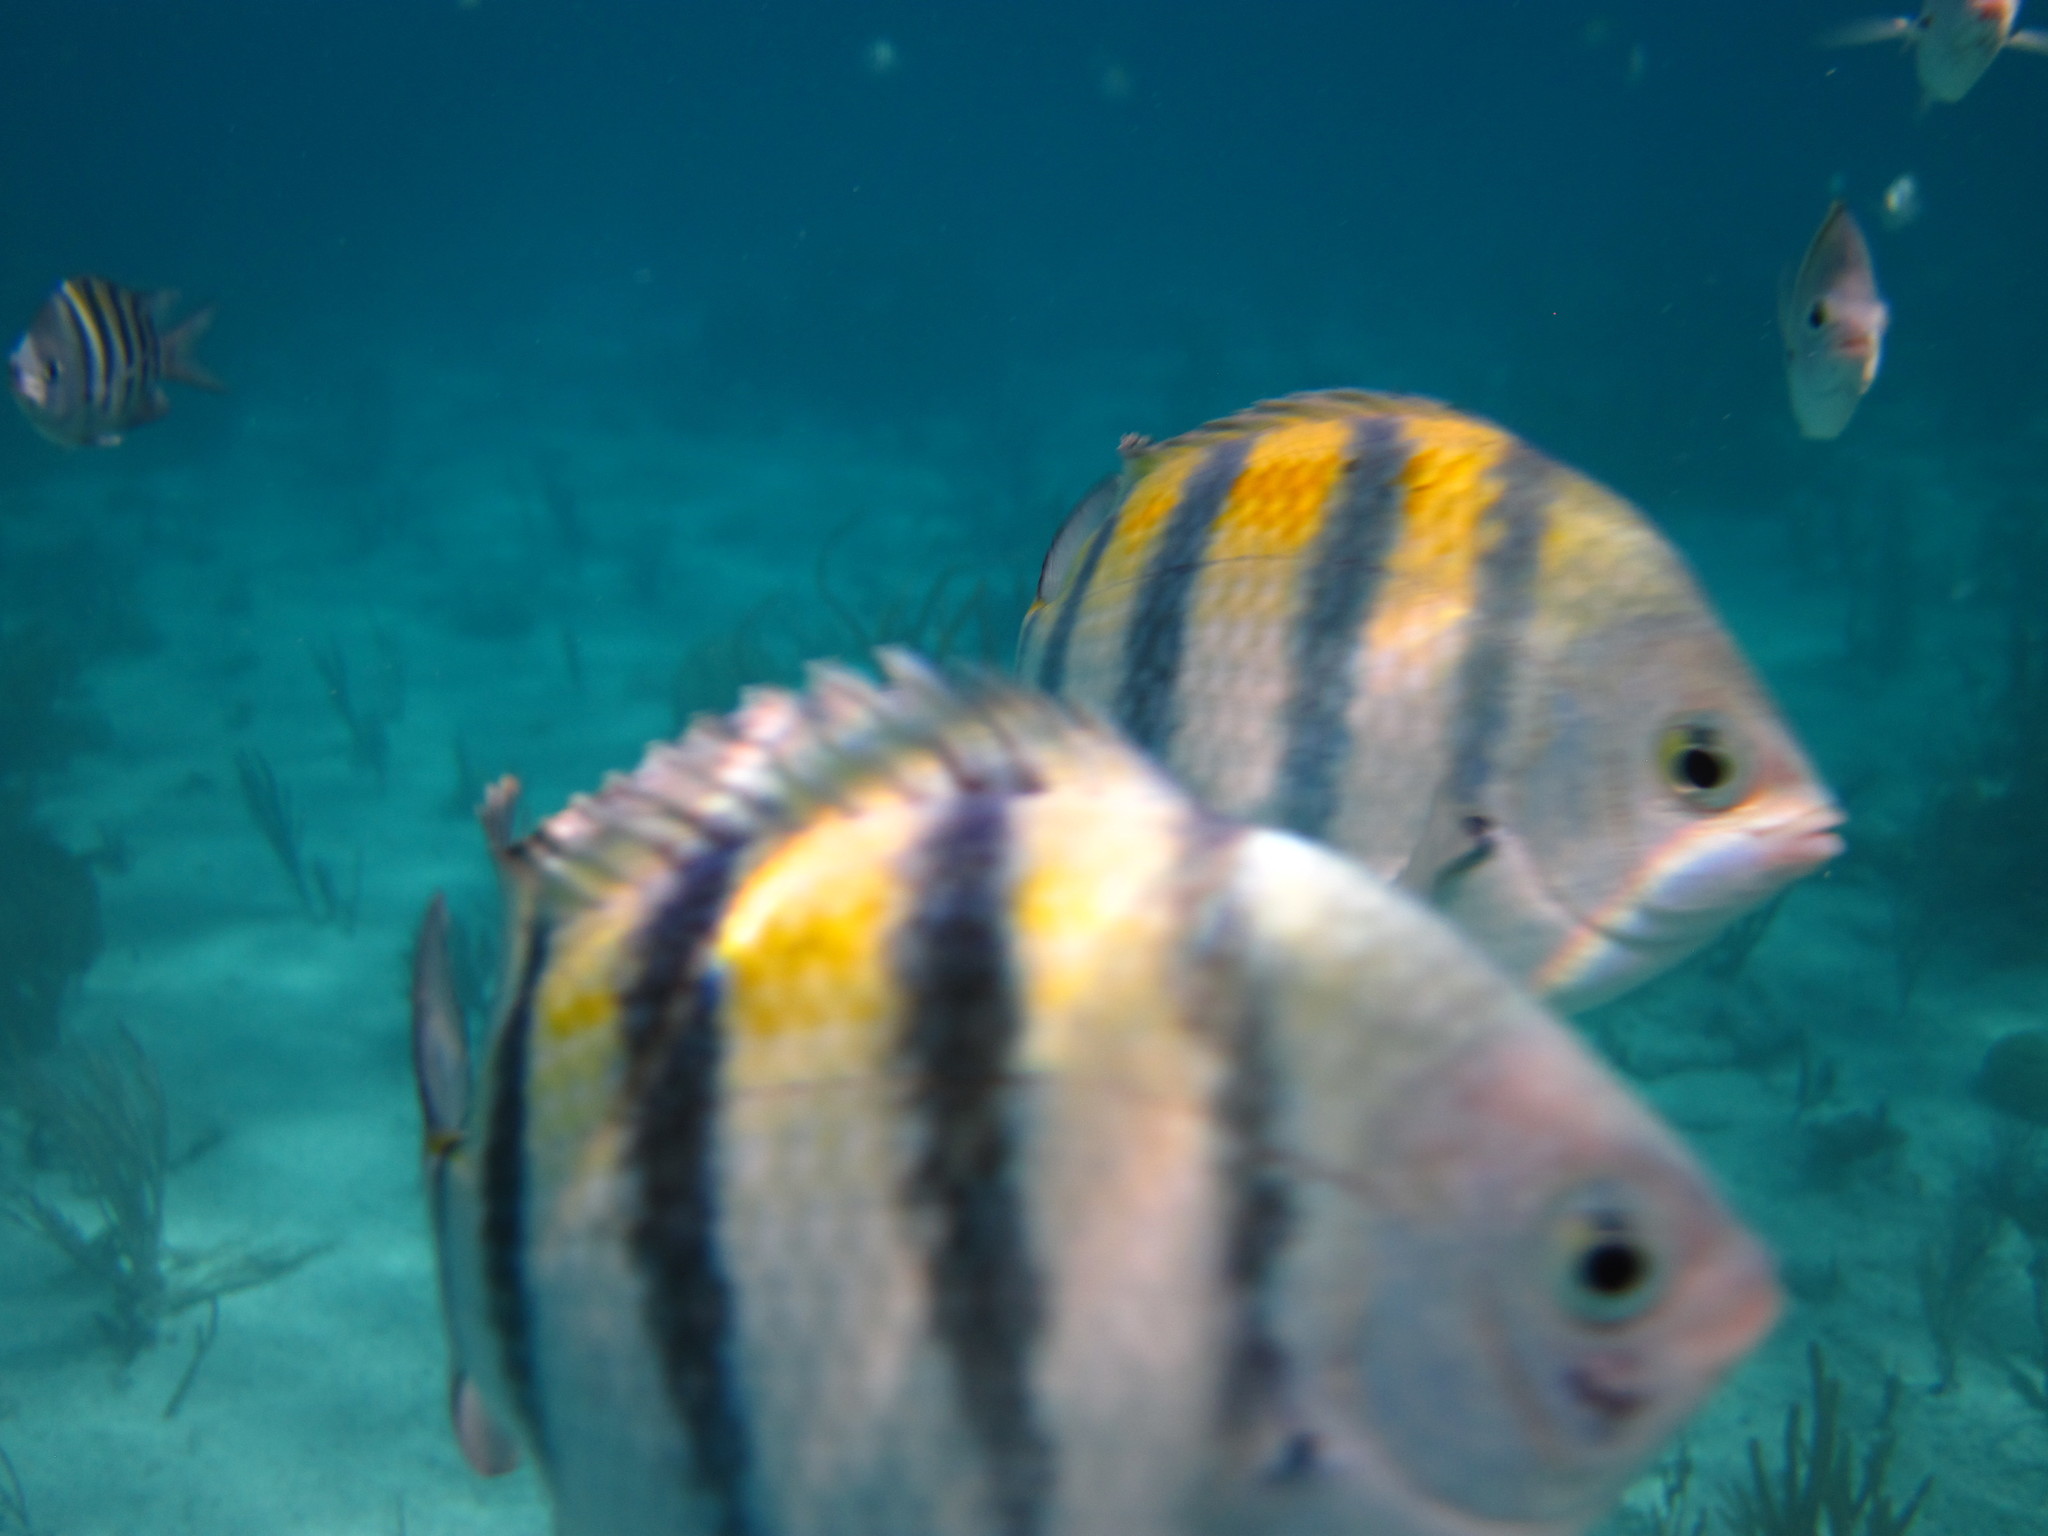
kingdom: Animalia
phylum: Chordata
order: Perciformes
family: Pomacentridae
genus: Abudefduf
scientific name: Abudefduf saxatilis
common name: Sergeant major
